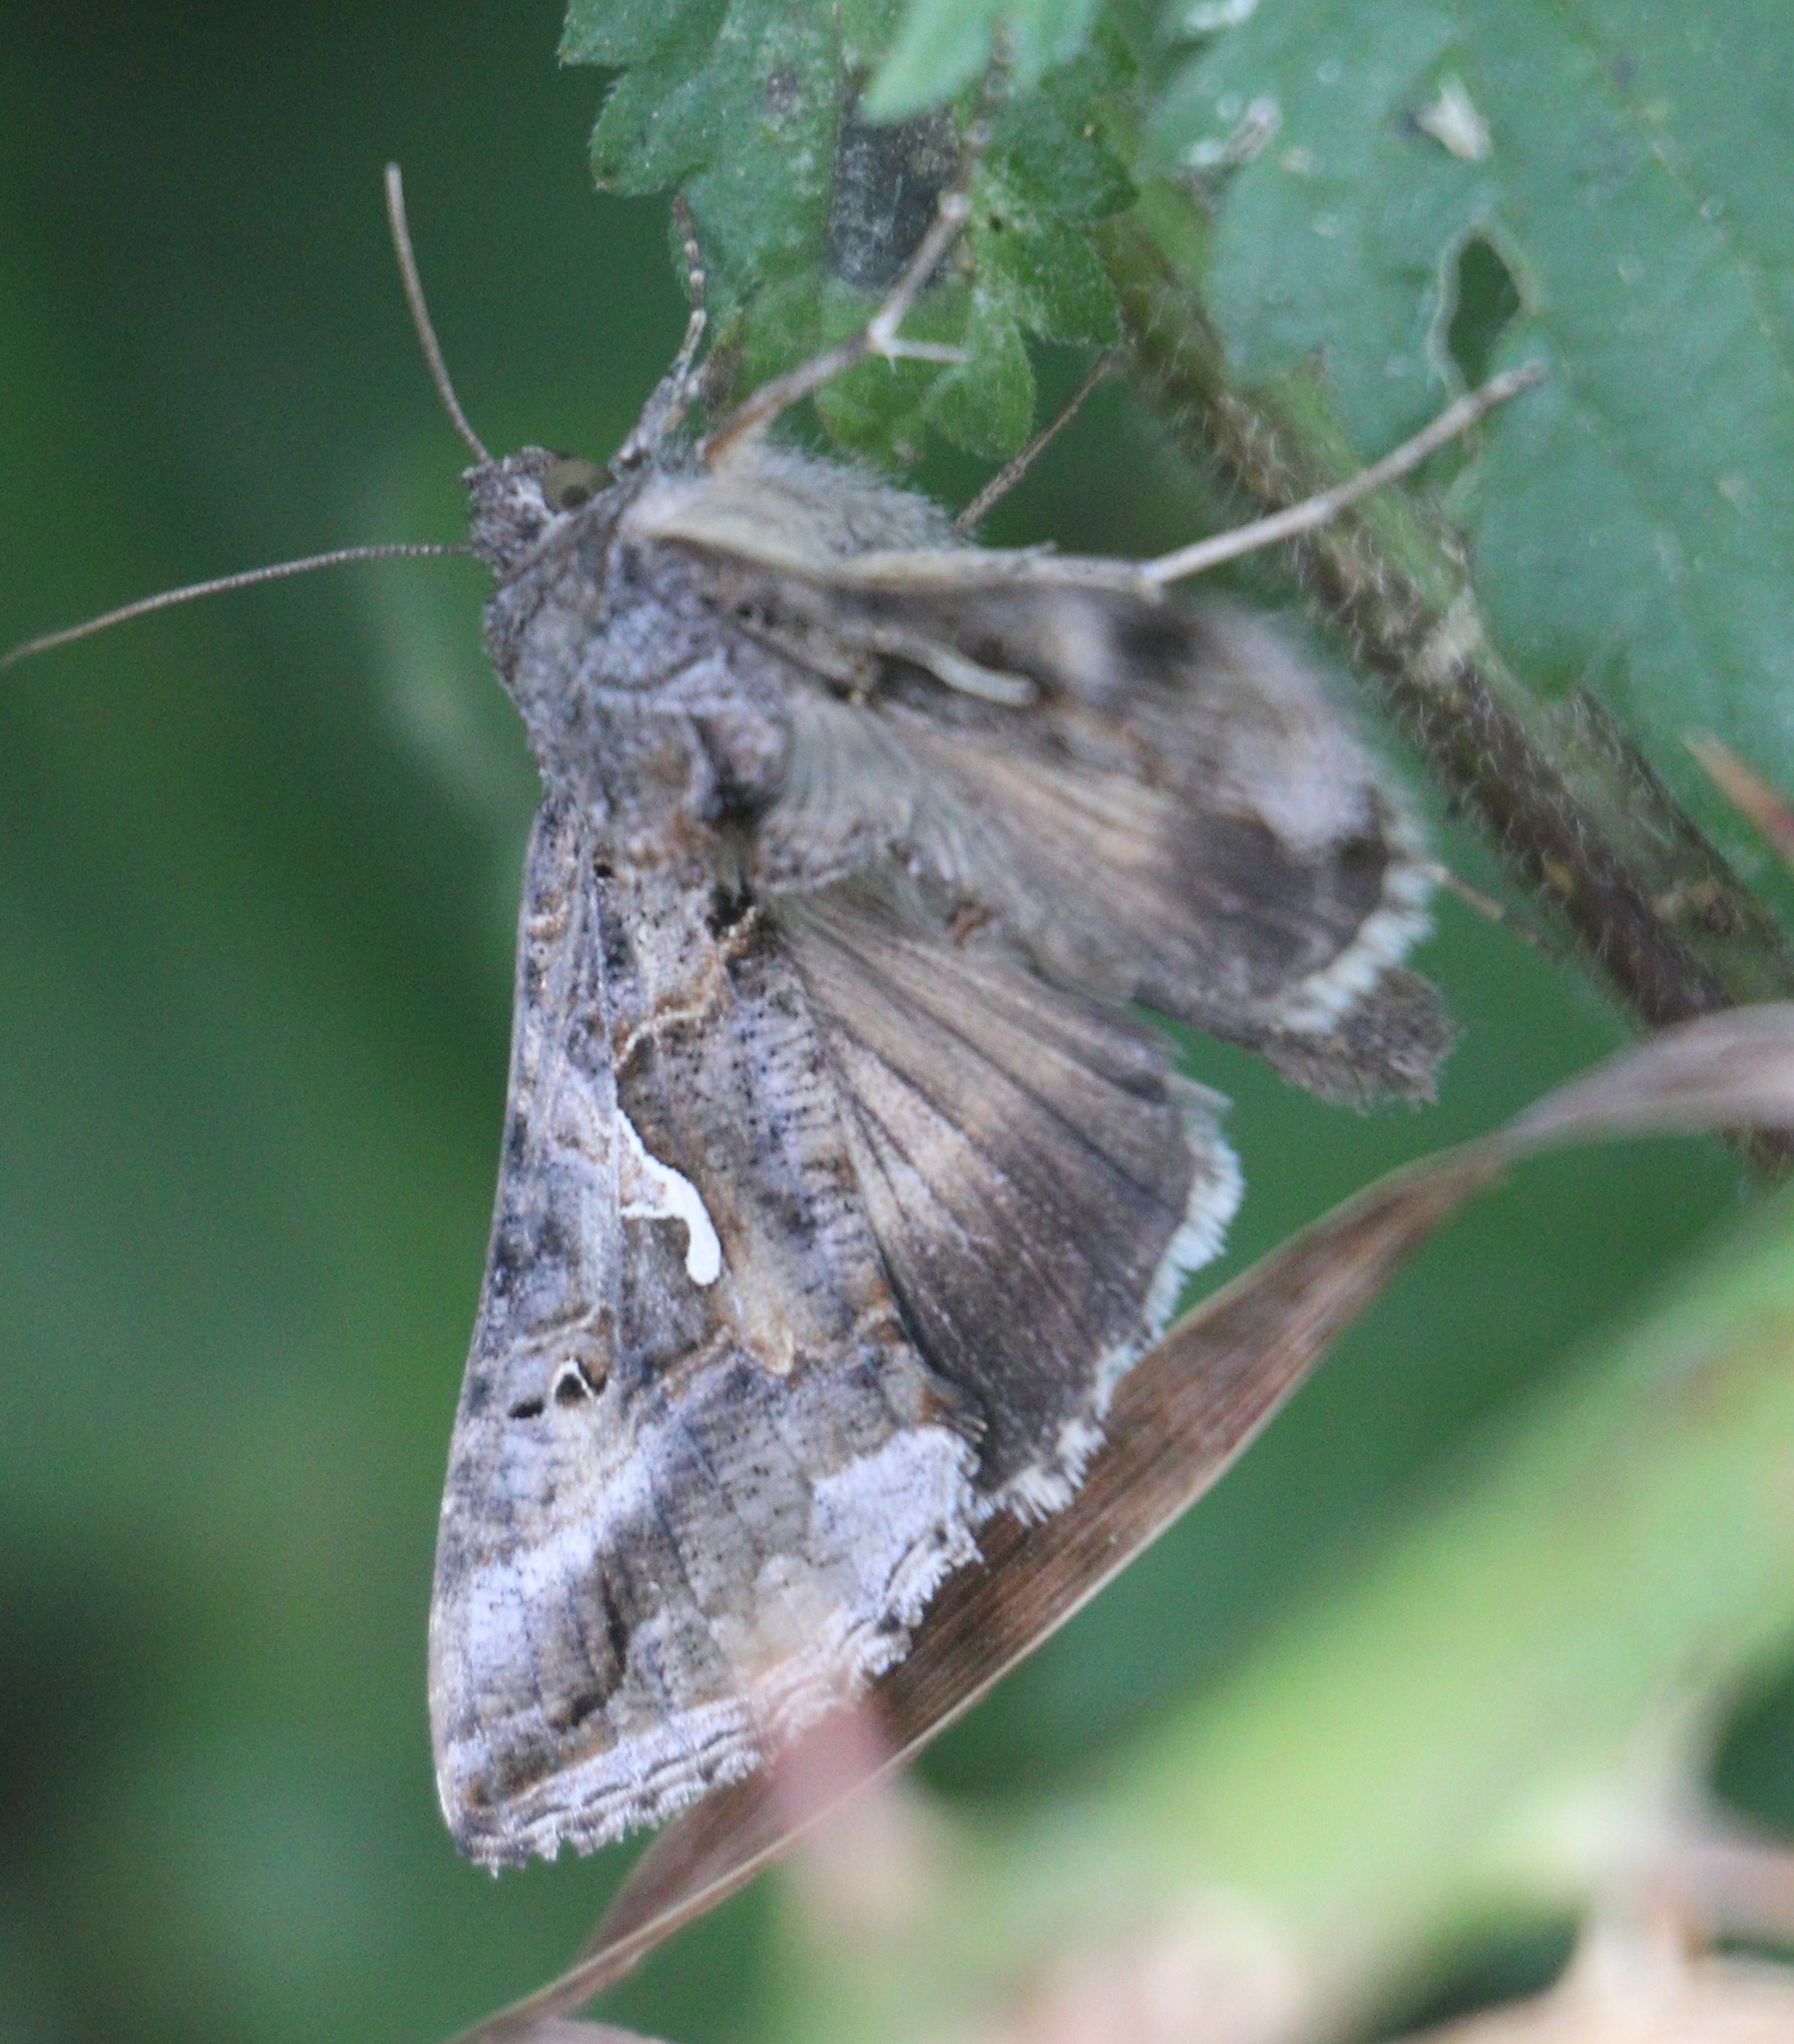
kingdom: Animalia
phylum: Arthropoda
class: Insecta
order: Lepidoptera
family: Noctuidae
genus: Autographa
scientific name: Autographa gamma
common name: Silver y
